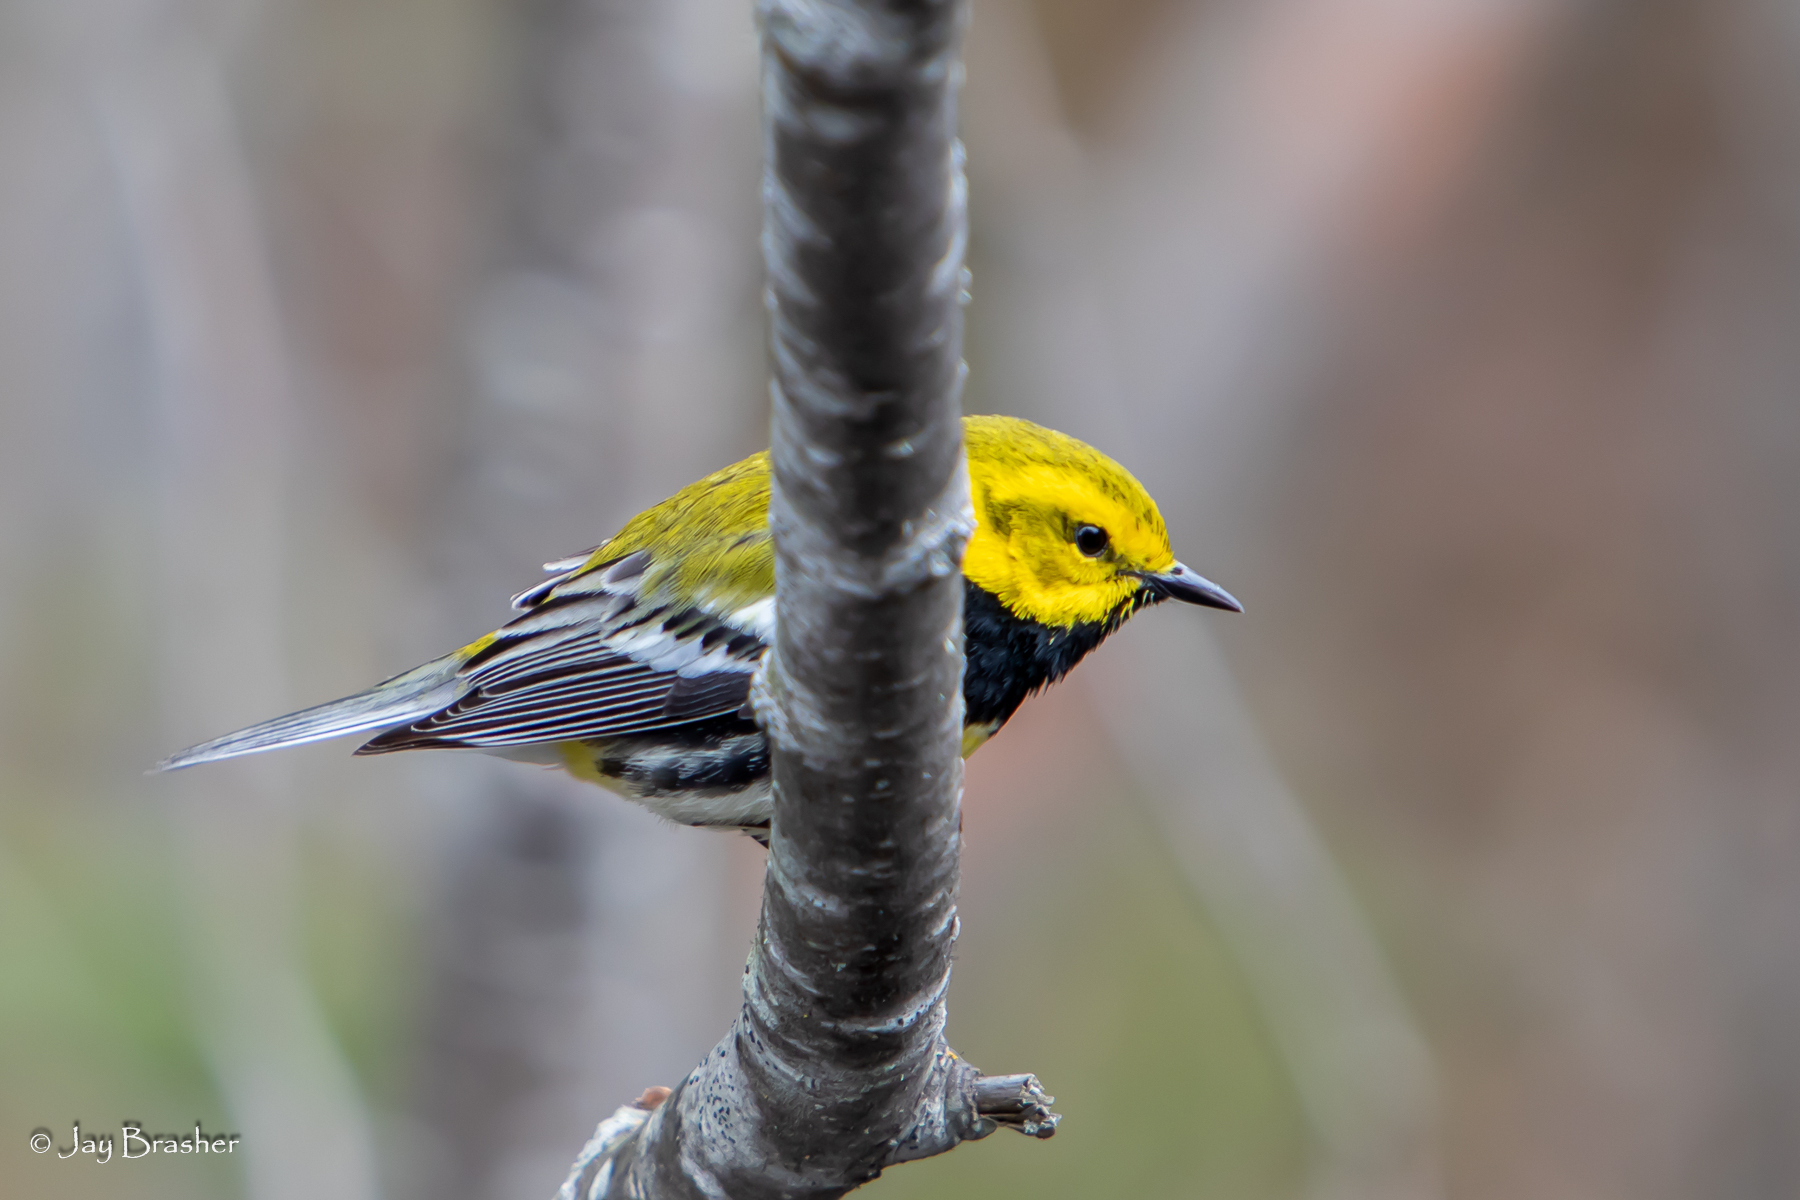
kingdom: Animalia
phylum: Chordata
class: Aves
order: Passeriformes
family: Parulidae
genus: Setophaga
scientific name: Setophaga virens
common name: Black-throated green warbler
